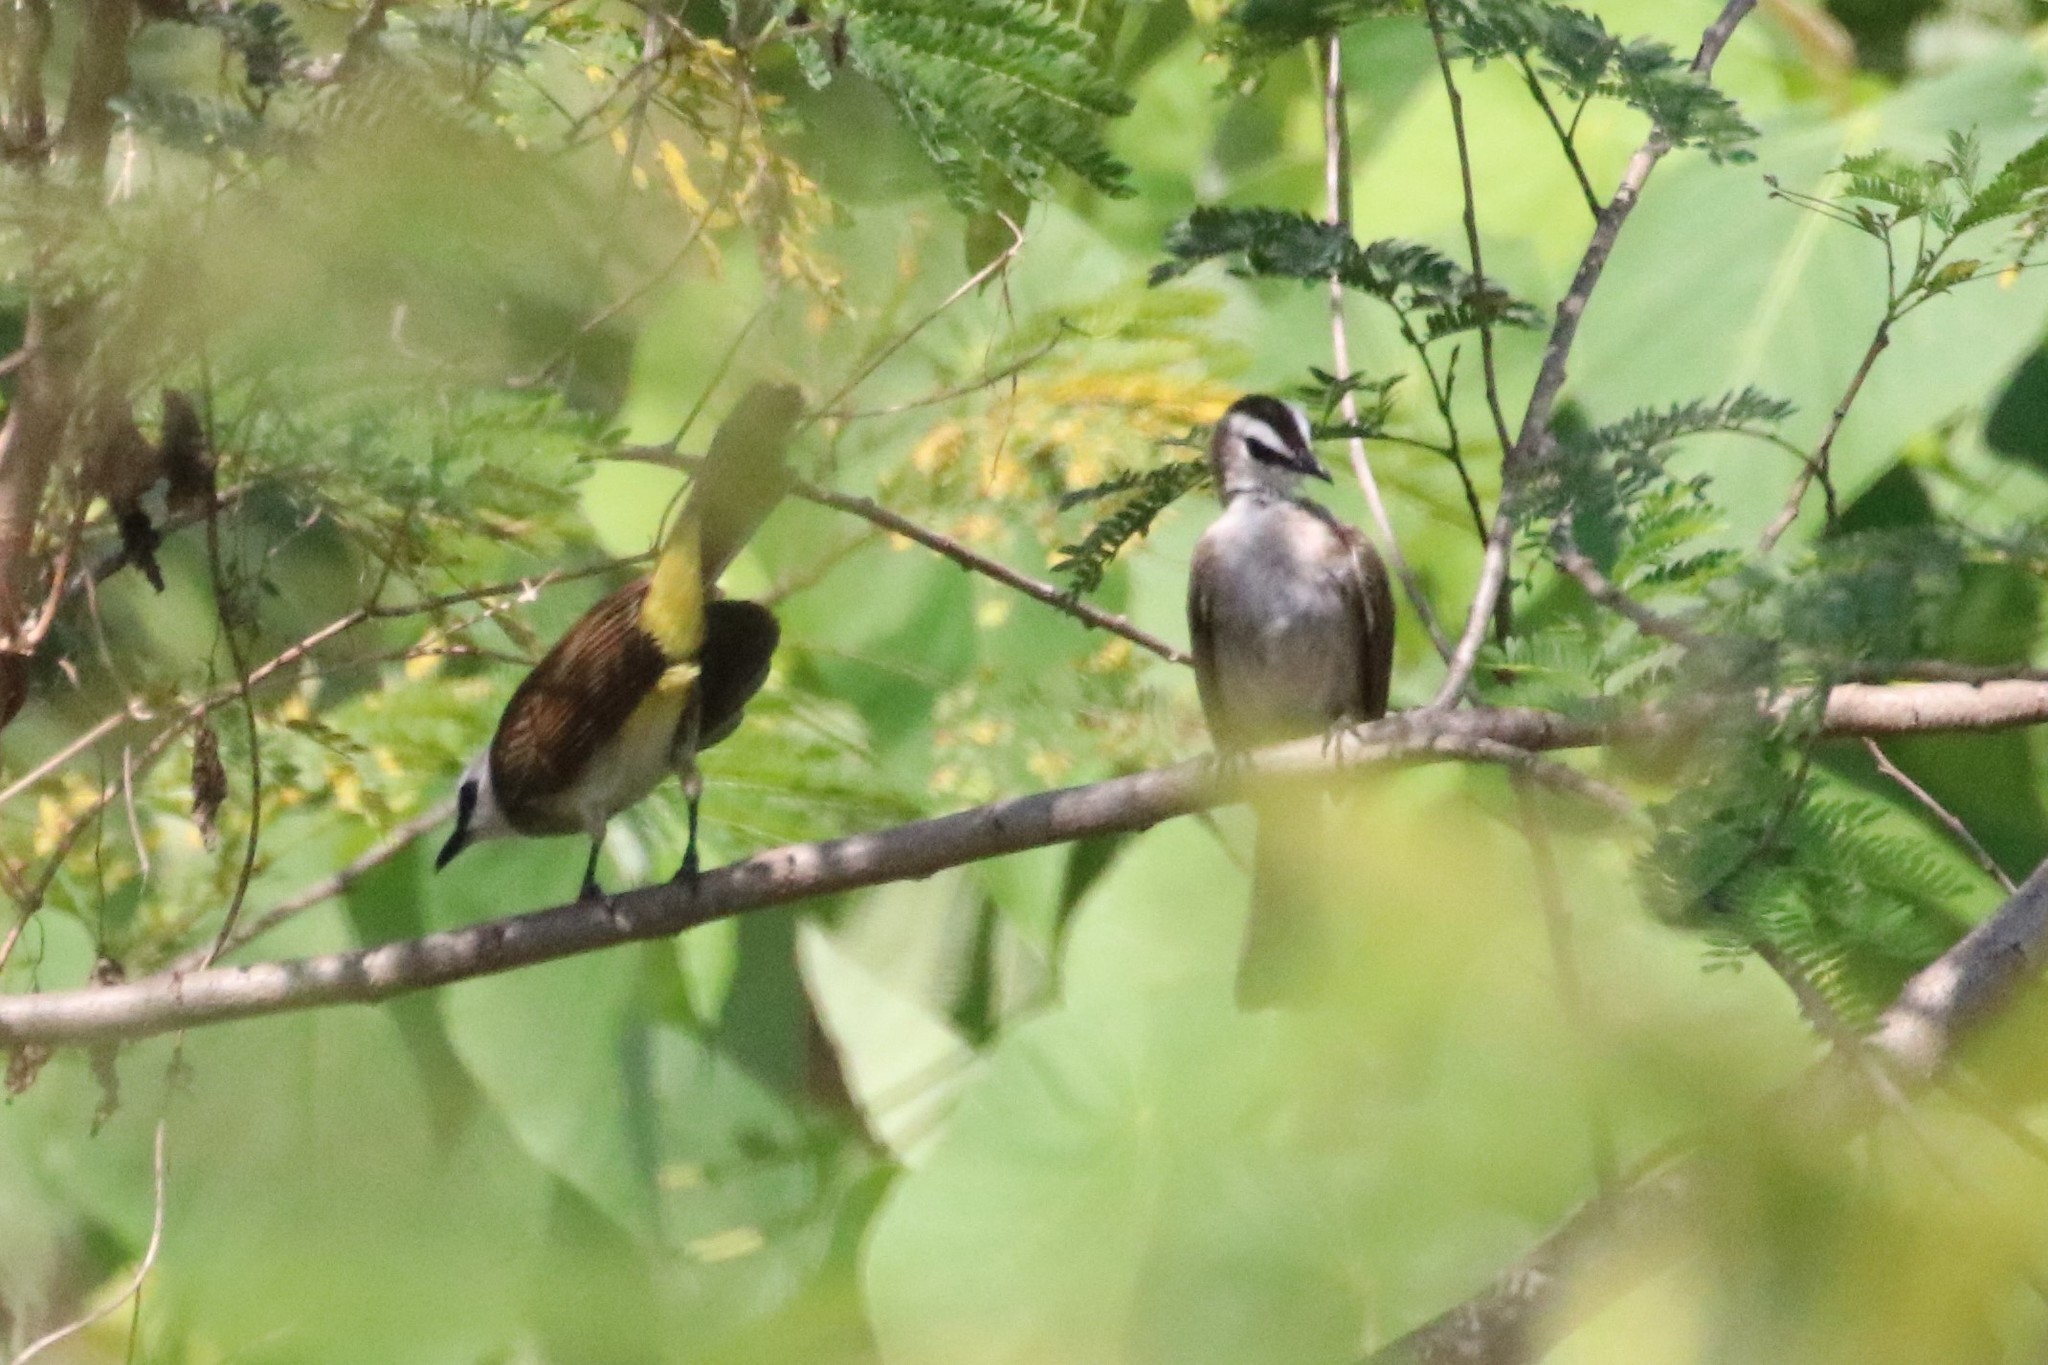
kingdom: Animalia
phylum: Chordata
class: Aves
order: Passeriformes
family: Pycnonotidae
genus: Pycnonotus
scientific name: Pycnonotus goiavier
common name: Yellow-vented bulbul
